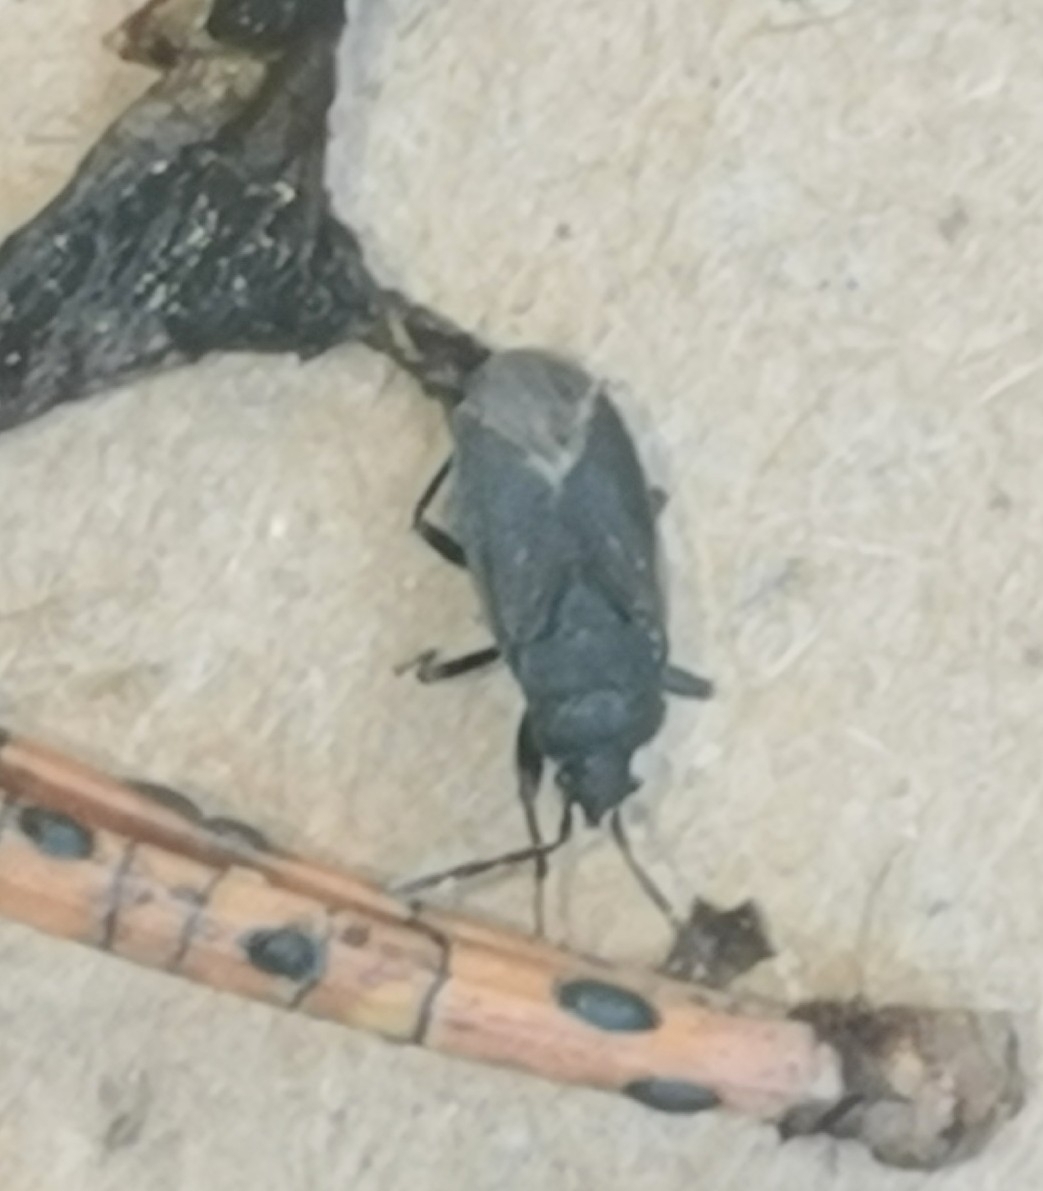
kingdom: Animalia
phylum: Arthropoda
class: Insecta
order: Hemiptera
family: Rhyparochromidae
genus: Drymus
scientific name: Drymus ryeii
